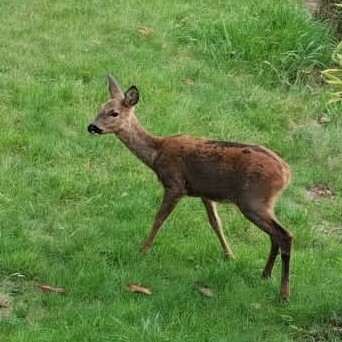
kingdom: Animalia
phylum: Chordata
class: Mammalia
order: Artiodactyla
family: Cervidae
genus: Capreolus
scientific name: Capreolus capreolus
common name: Western roe deer
